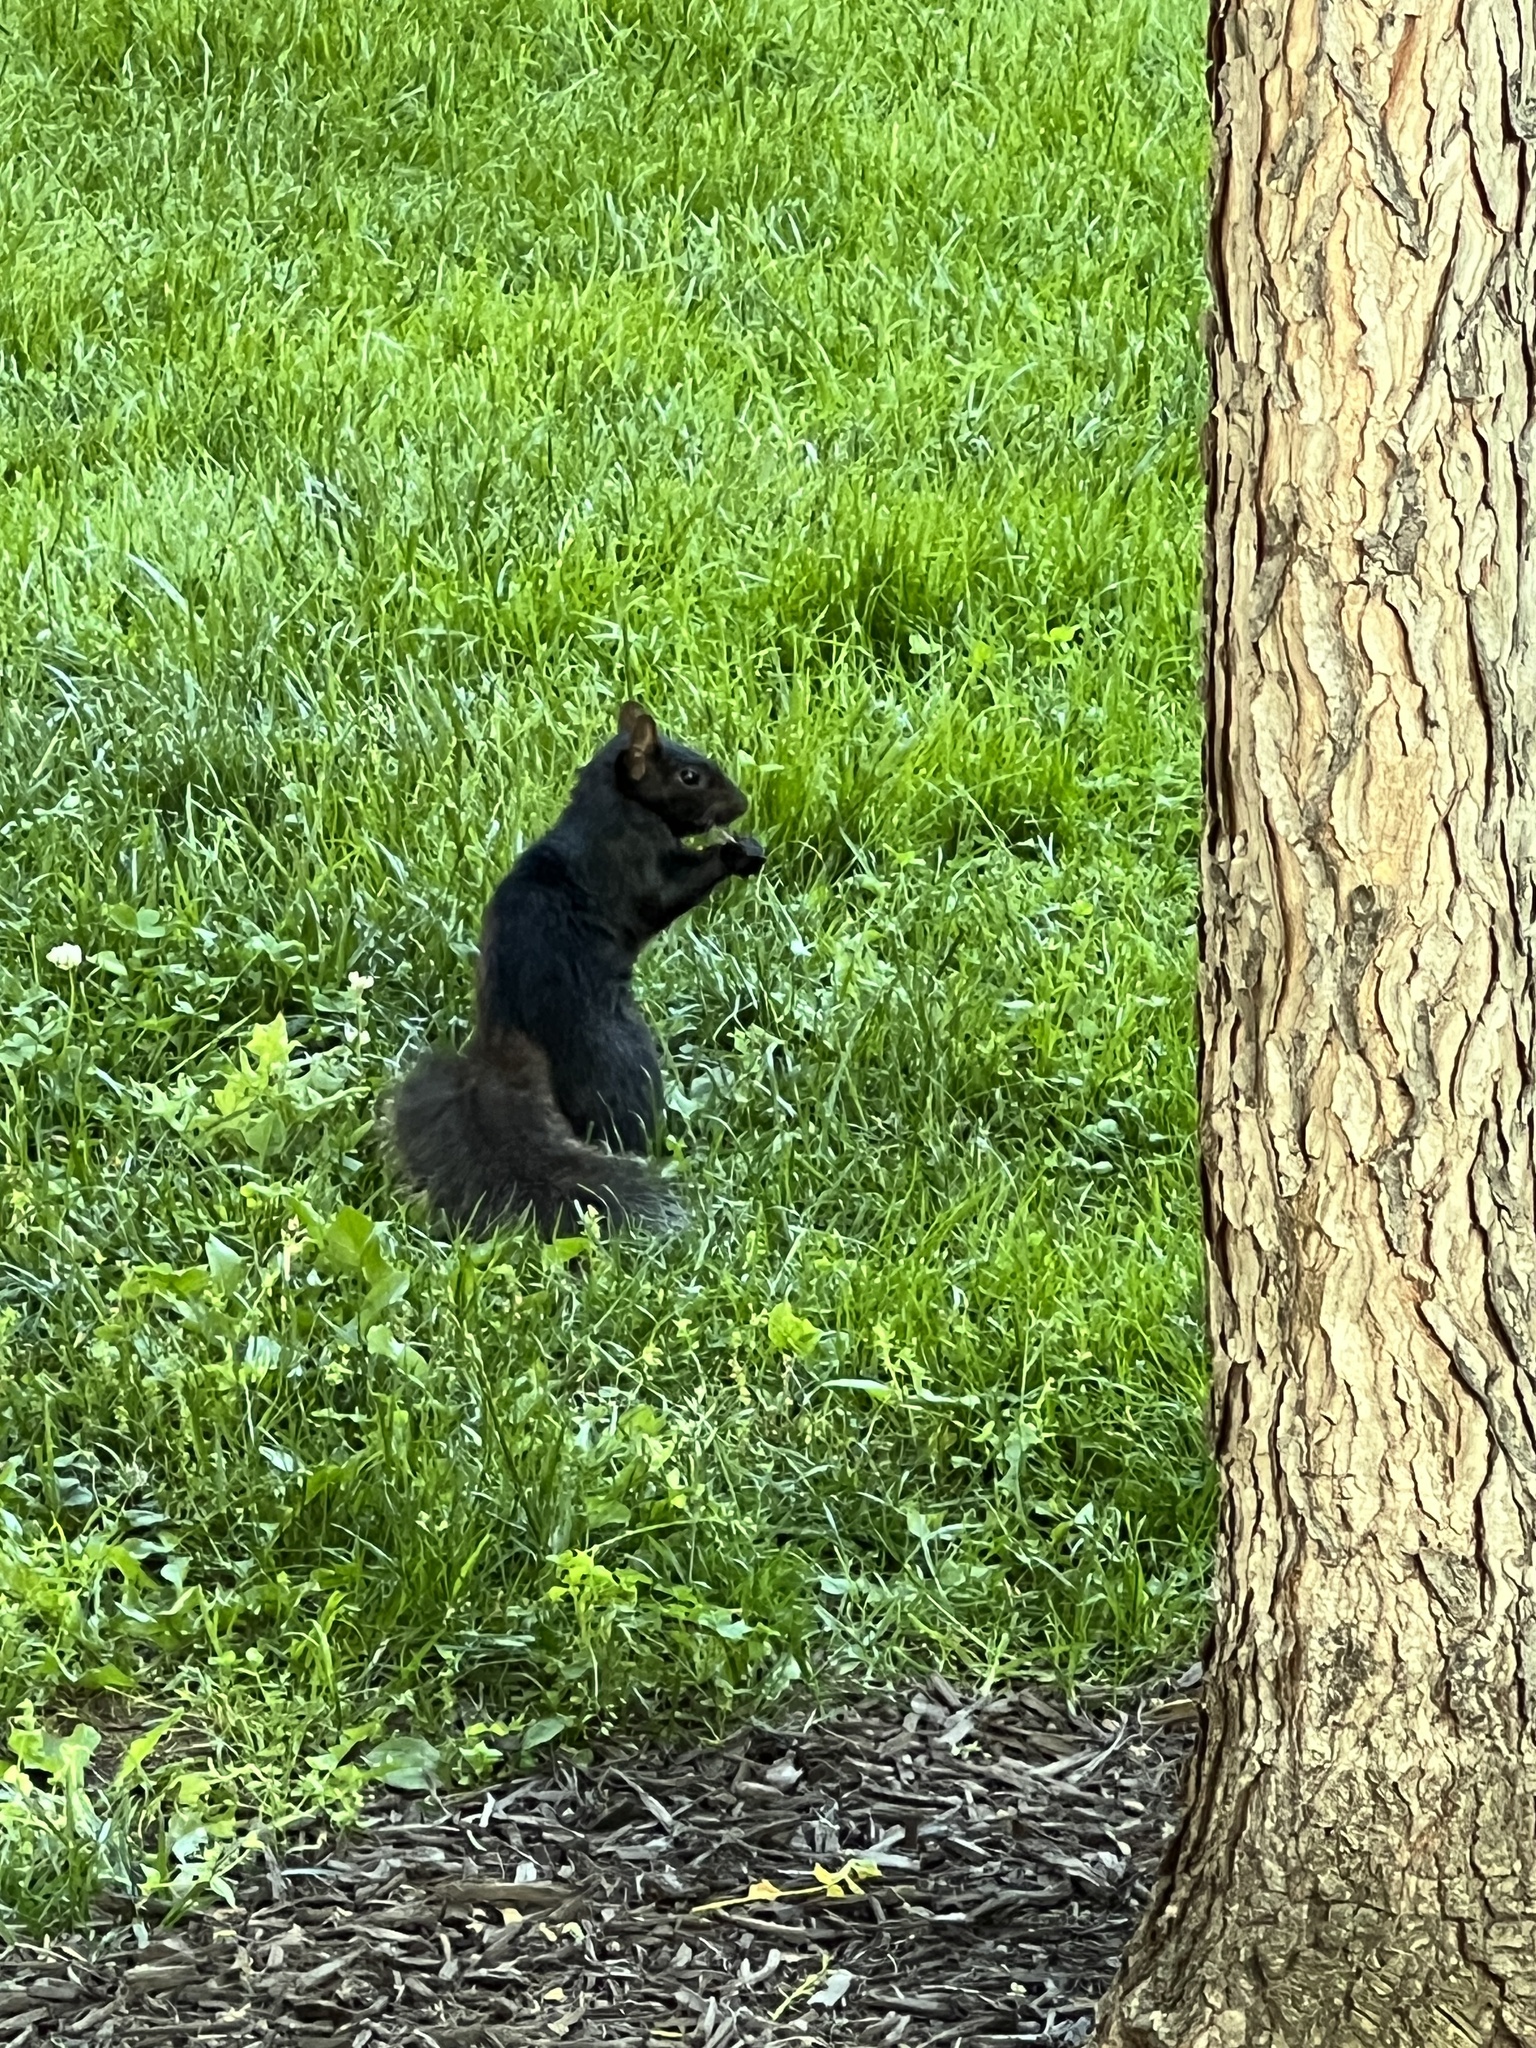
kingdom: Animalia
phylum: Chordata
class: Mammalia
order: Rodentia
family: Sciuridae
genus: Sciurus
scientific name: Sciurus carolinensis
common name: Eastern gray squirrel
